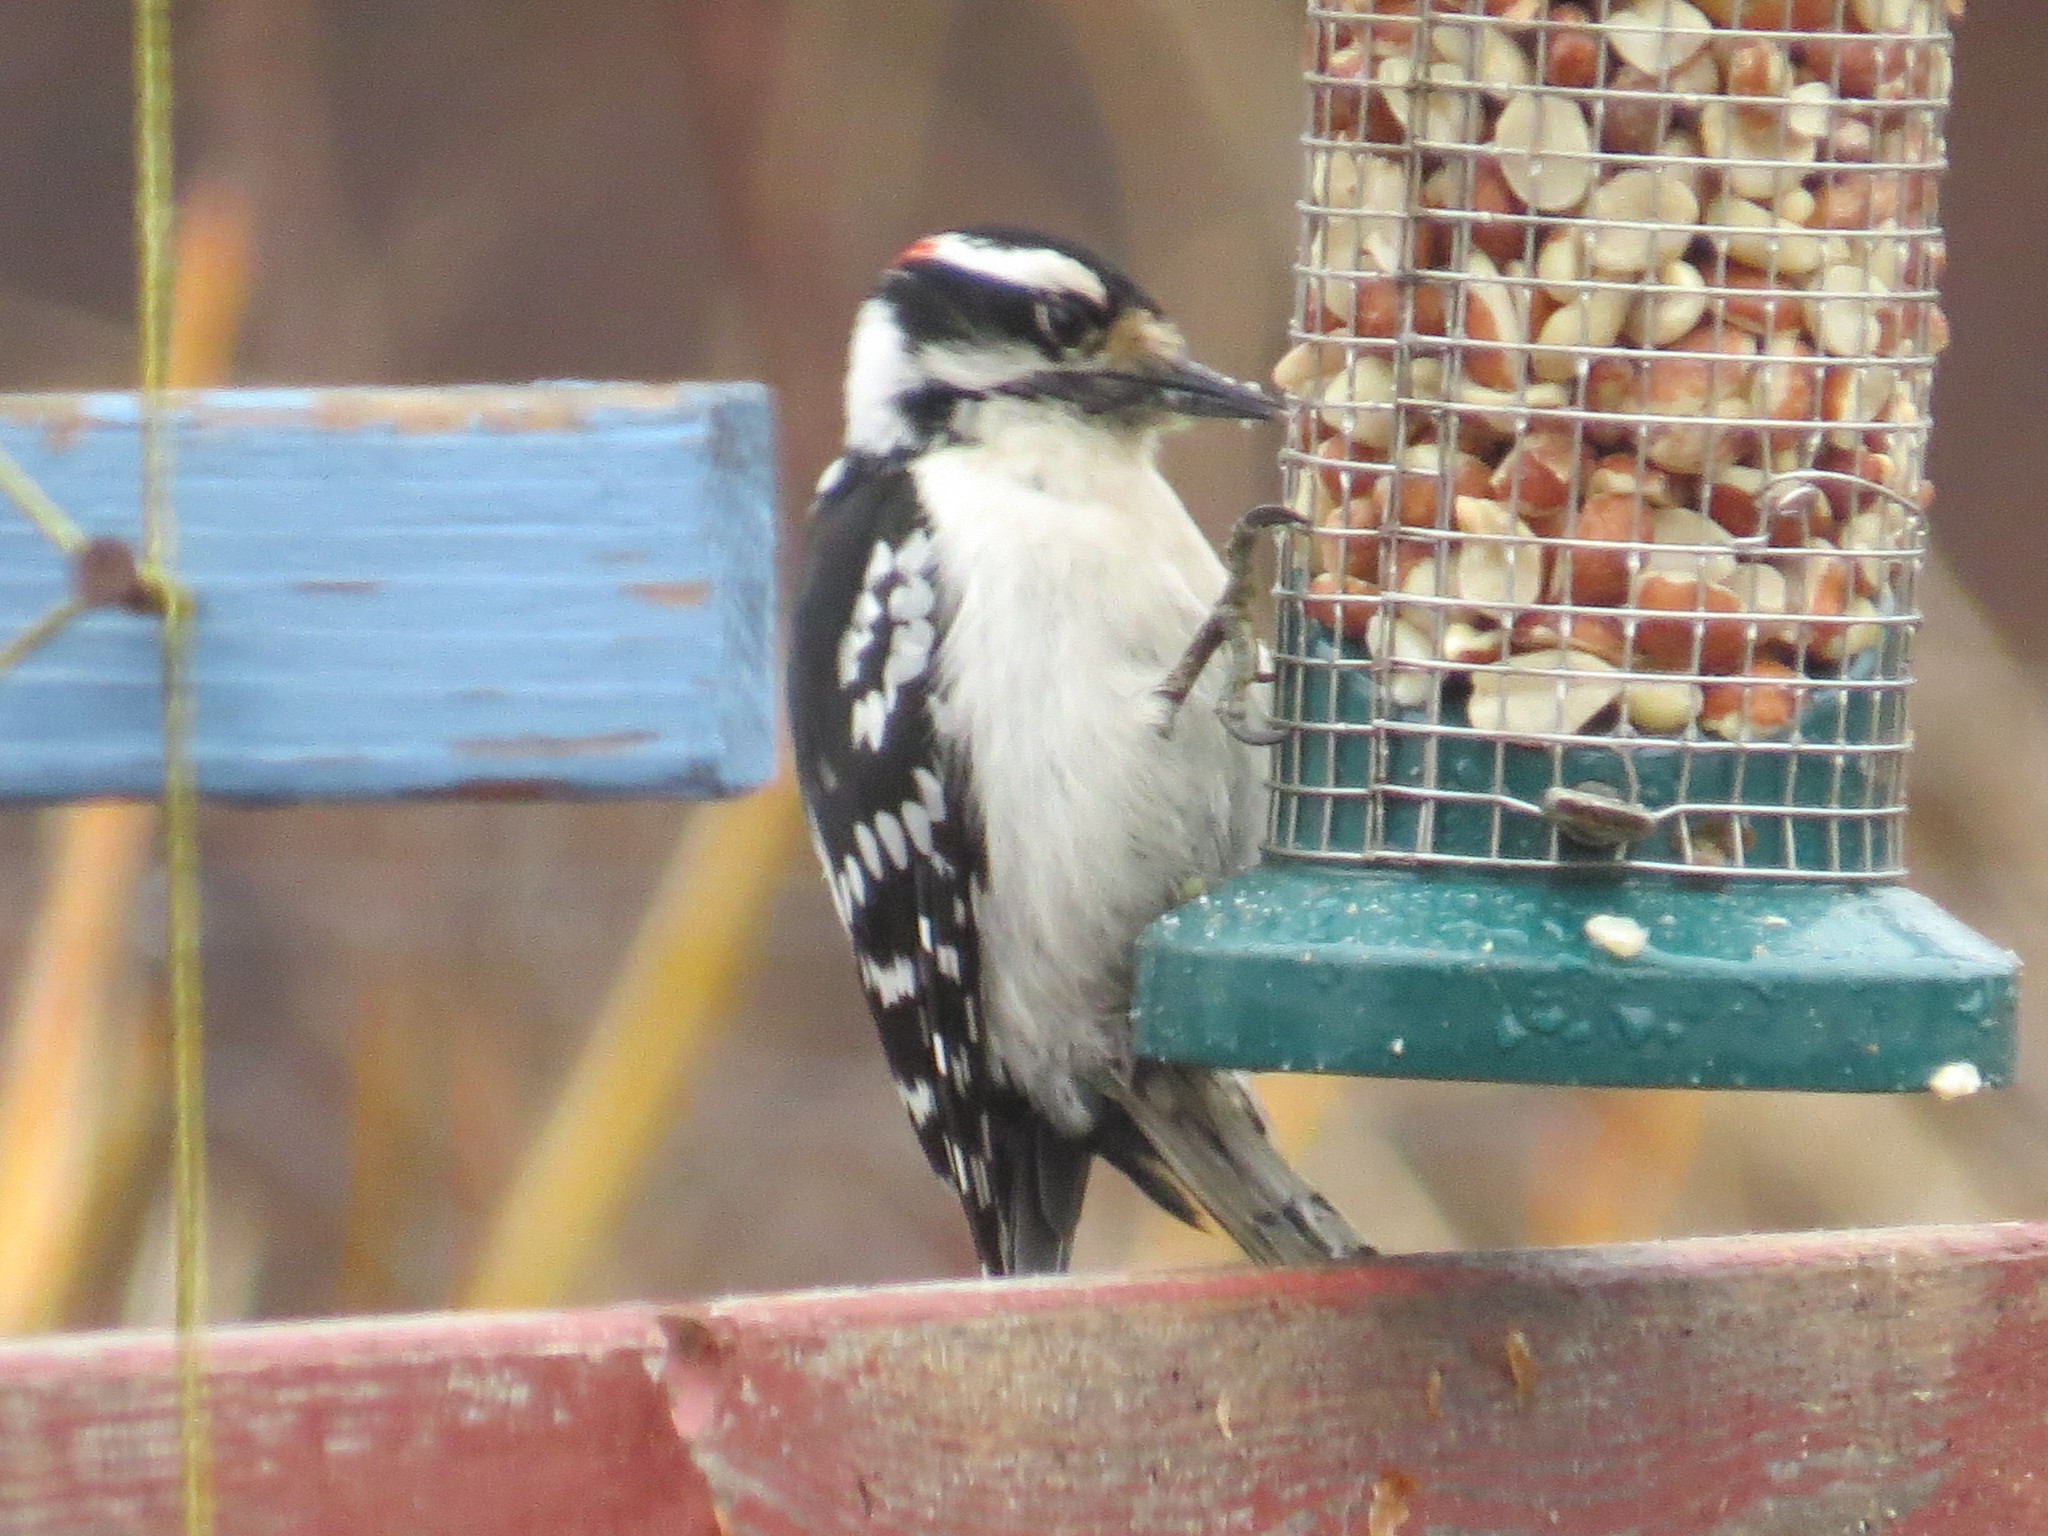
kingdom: Animalia
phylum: Chordata
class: Aves
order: Piciformes
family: Picidae
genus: Dryobates
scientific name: Dryobates pubescens
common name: Downy woodpecker
